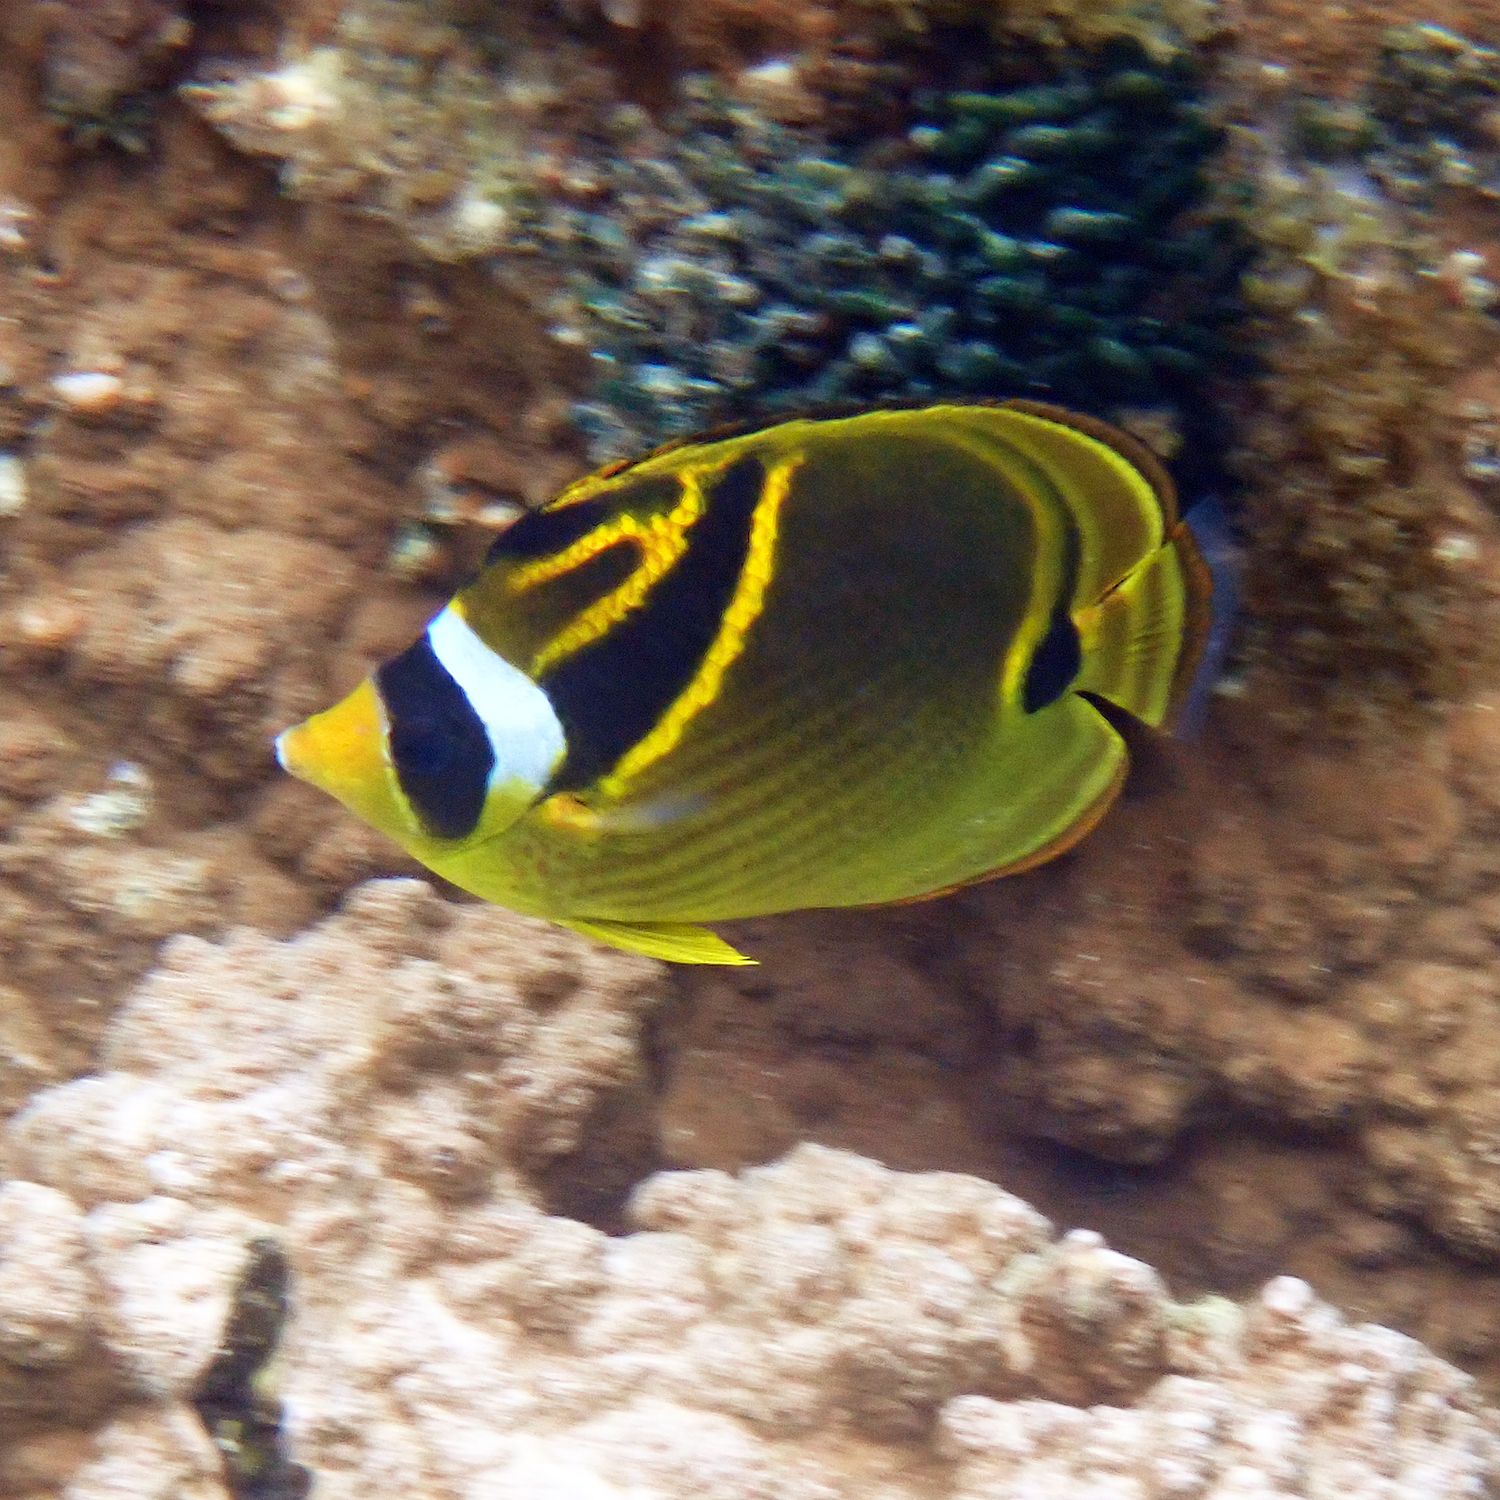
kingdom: Animalia
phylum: Chordata
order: Perciformes
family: Chaetodontidae
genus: Chaetodon
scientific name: Chaetodon lunula
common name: Raccoon butterflyfish
